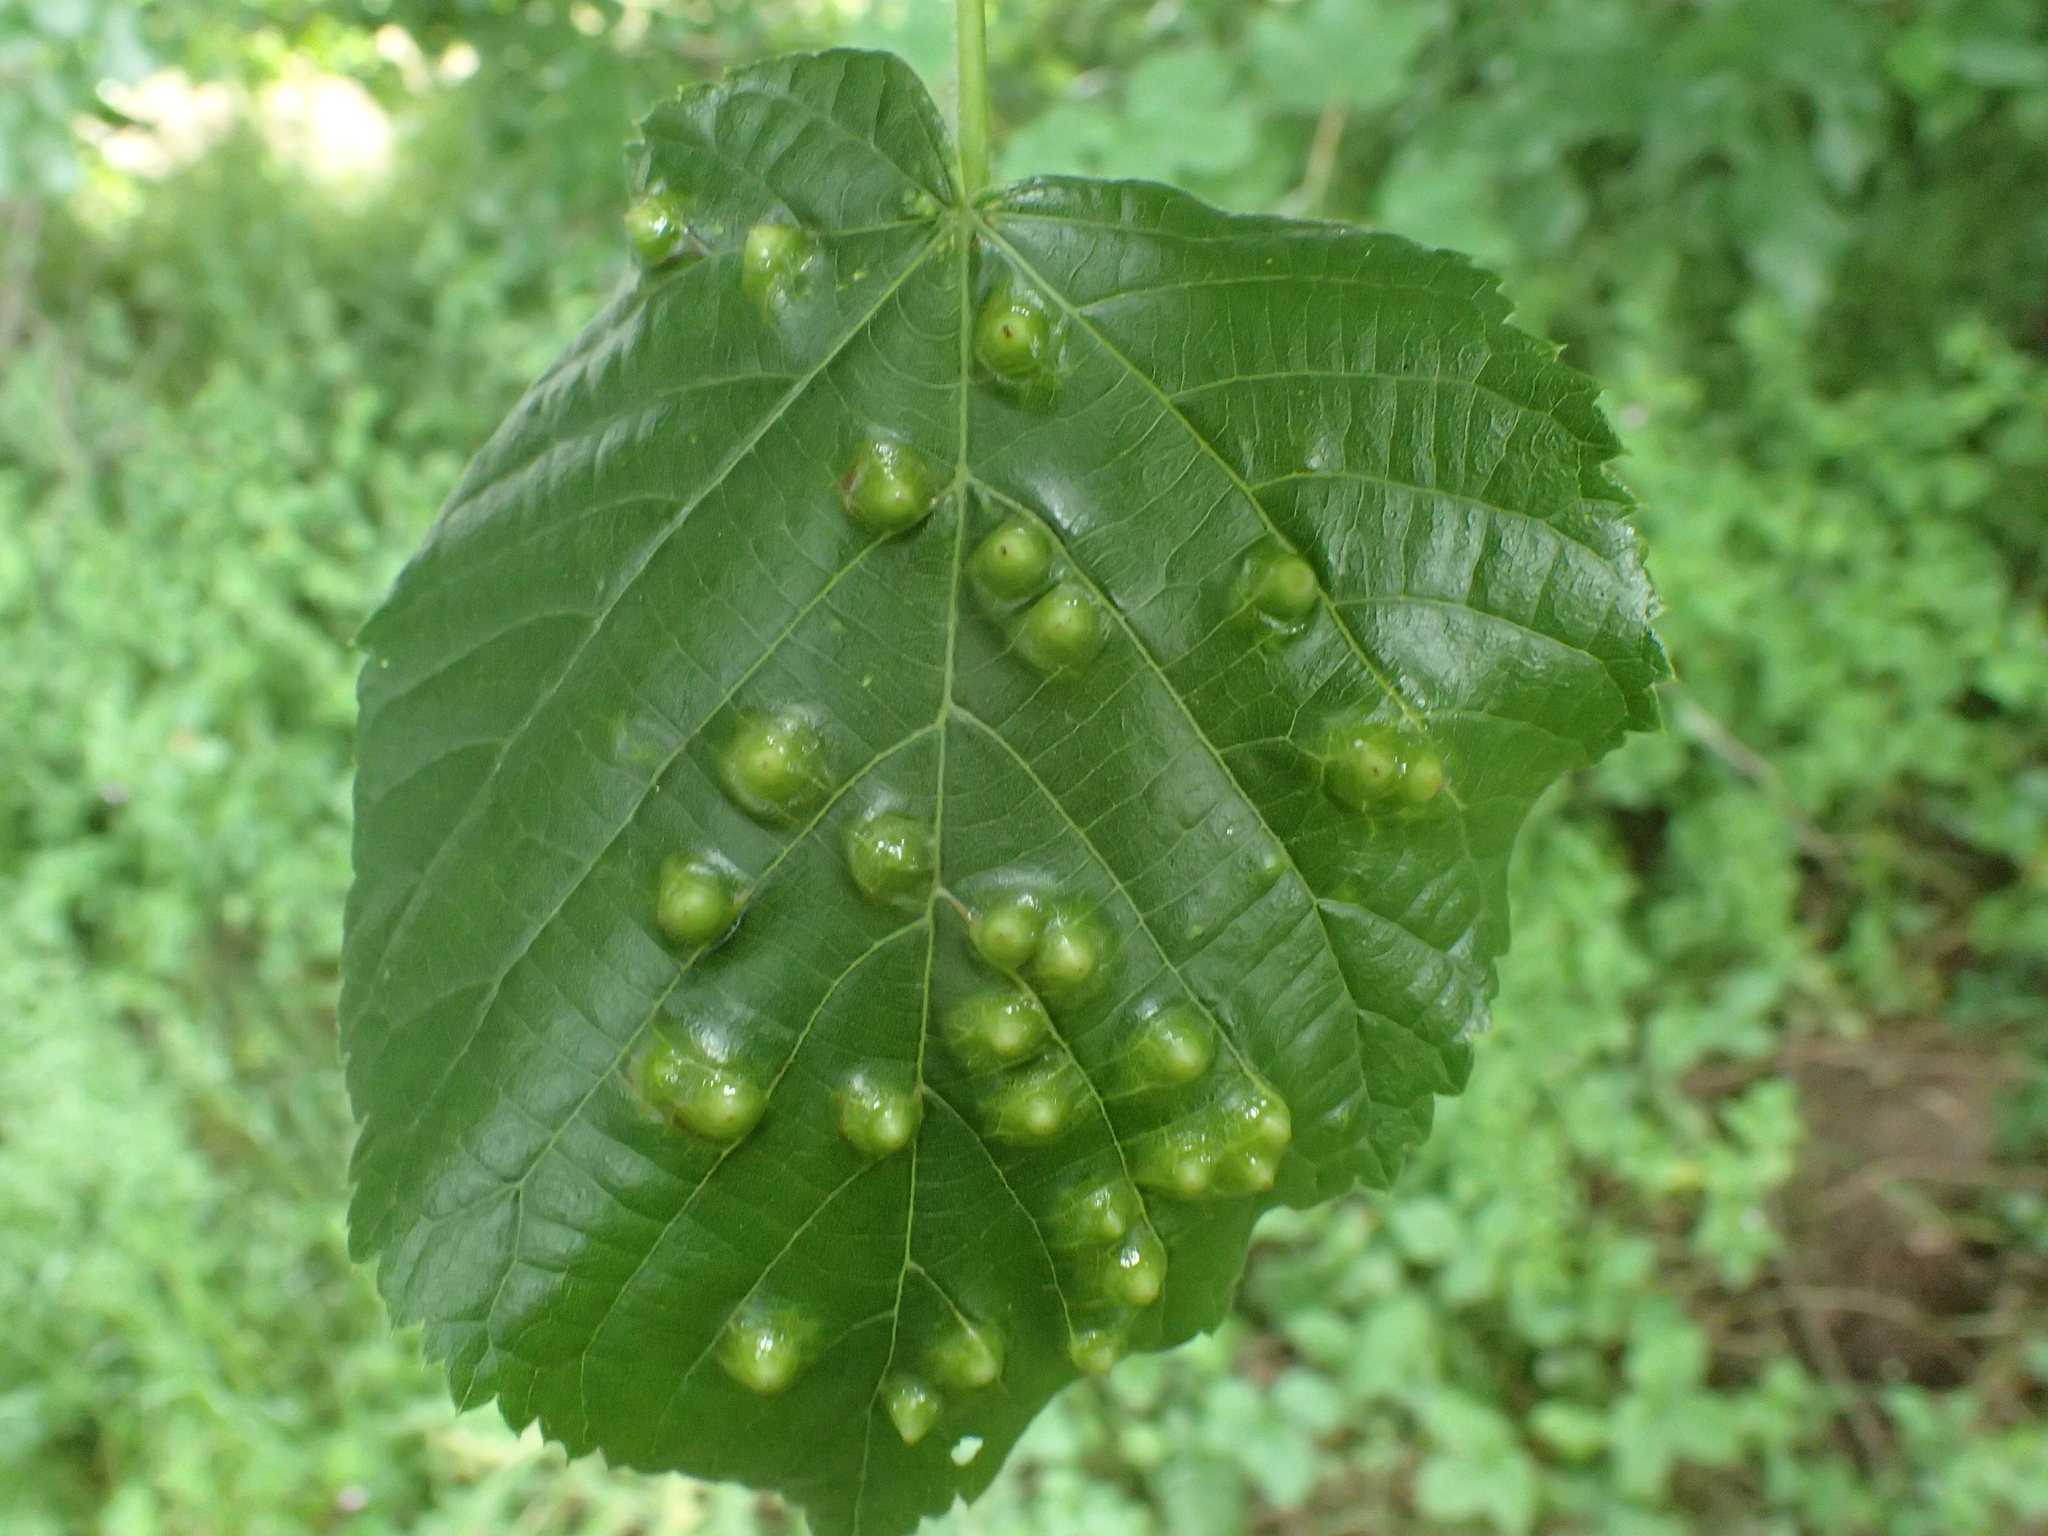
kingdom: Animalia
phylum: Arthropoda
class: Insecta
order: Diptera
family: Cecidomyiidae
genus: Didymomyia
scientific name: Didymomyia tiliacea
